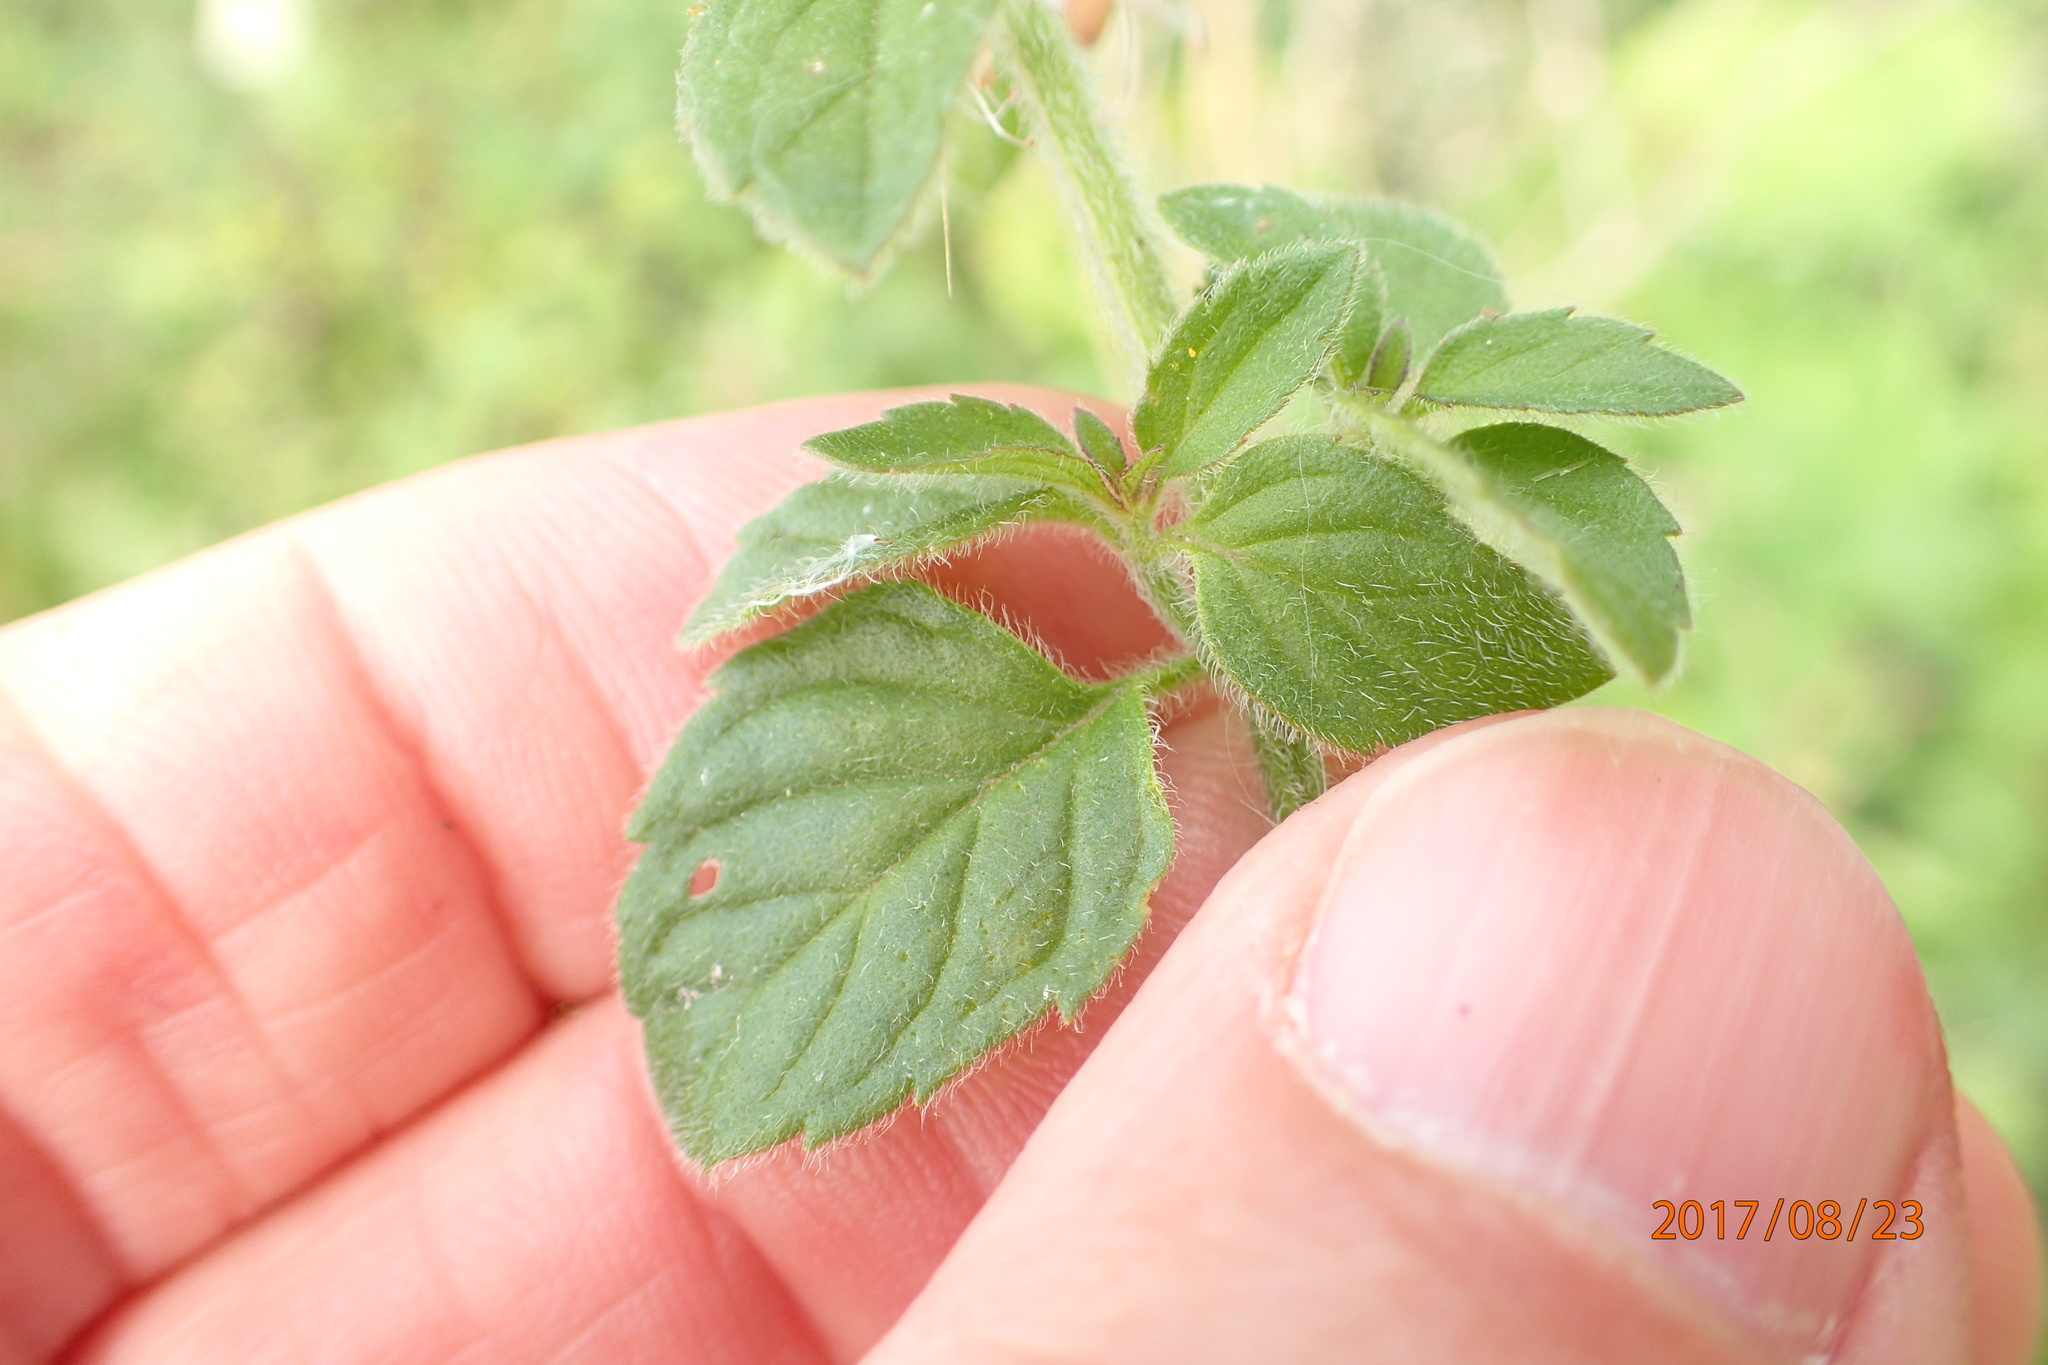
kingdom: Plantae
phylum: Tracheophyta
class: Magnoliopsida
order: Lamiales
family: Lamiaceae
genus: Mentha
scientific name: Mentha aquatica
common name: Water mint
